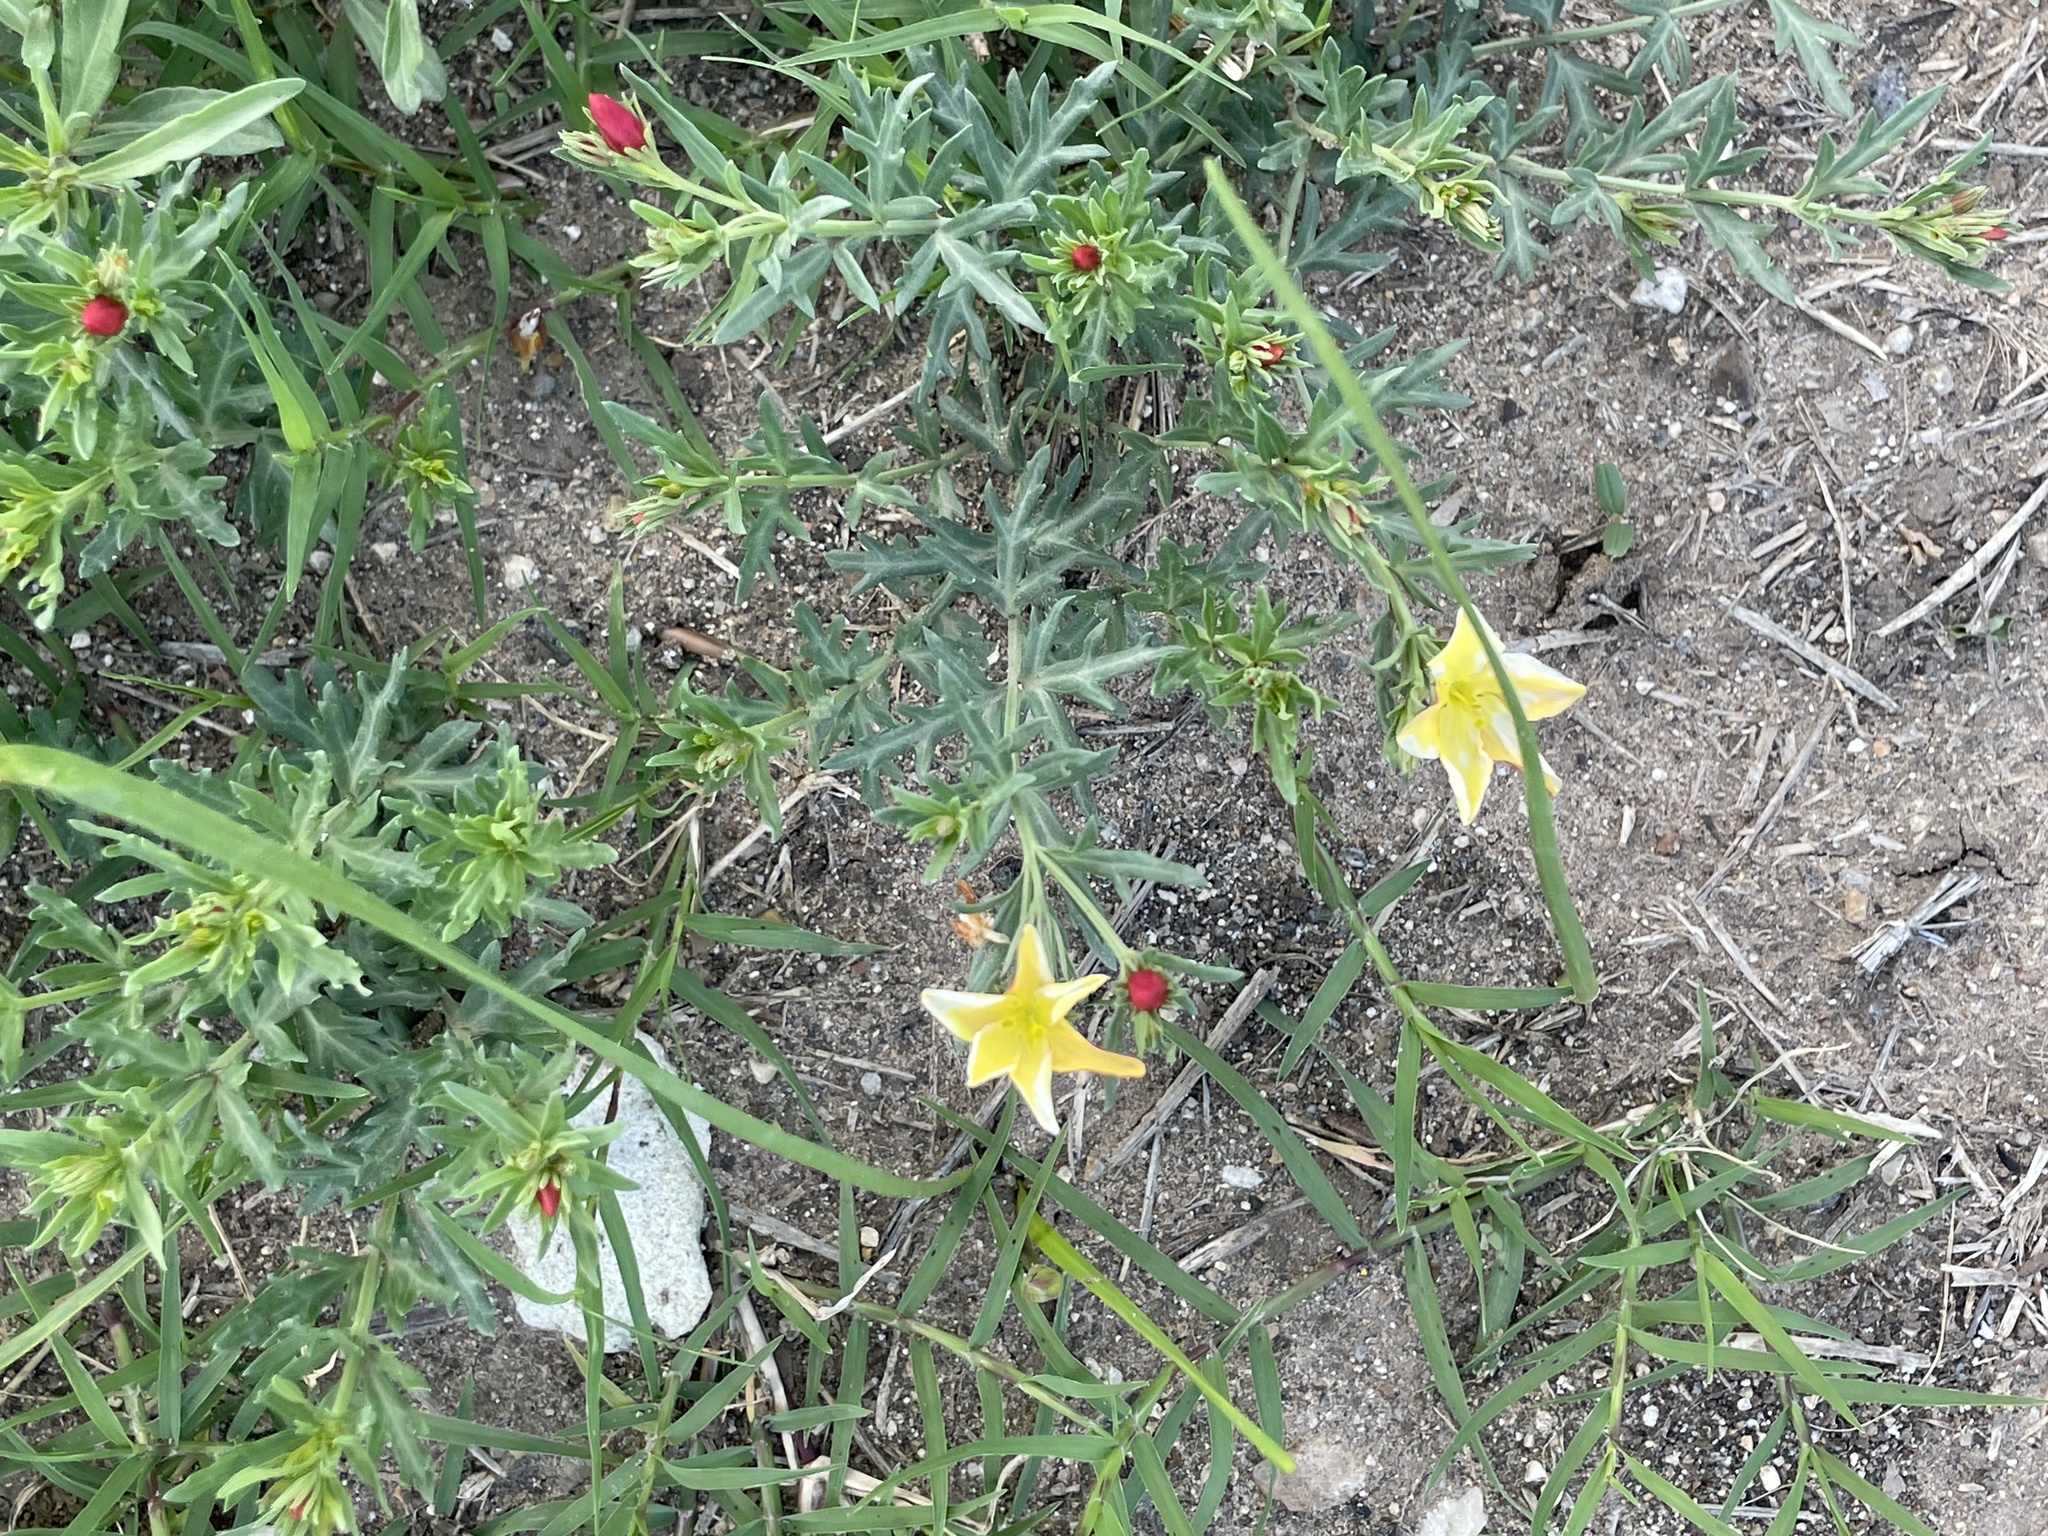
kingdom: Plantae
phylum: Tracheophyta
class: Magnoliopsida
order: Lamiales
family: Oleaceae
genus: Menodora
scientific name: Menodora heterophylla
